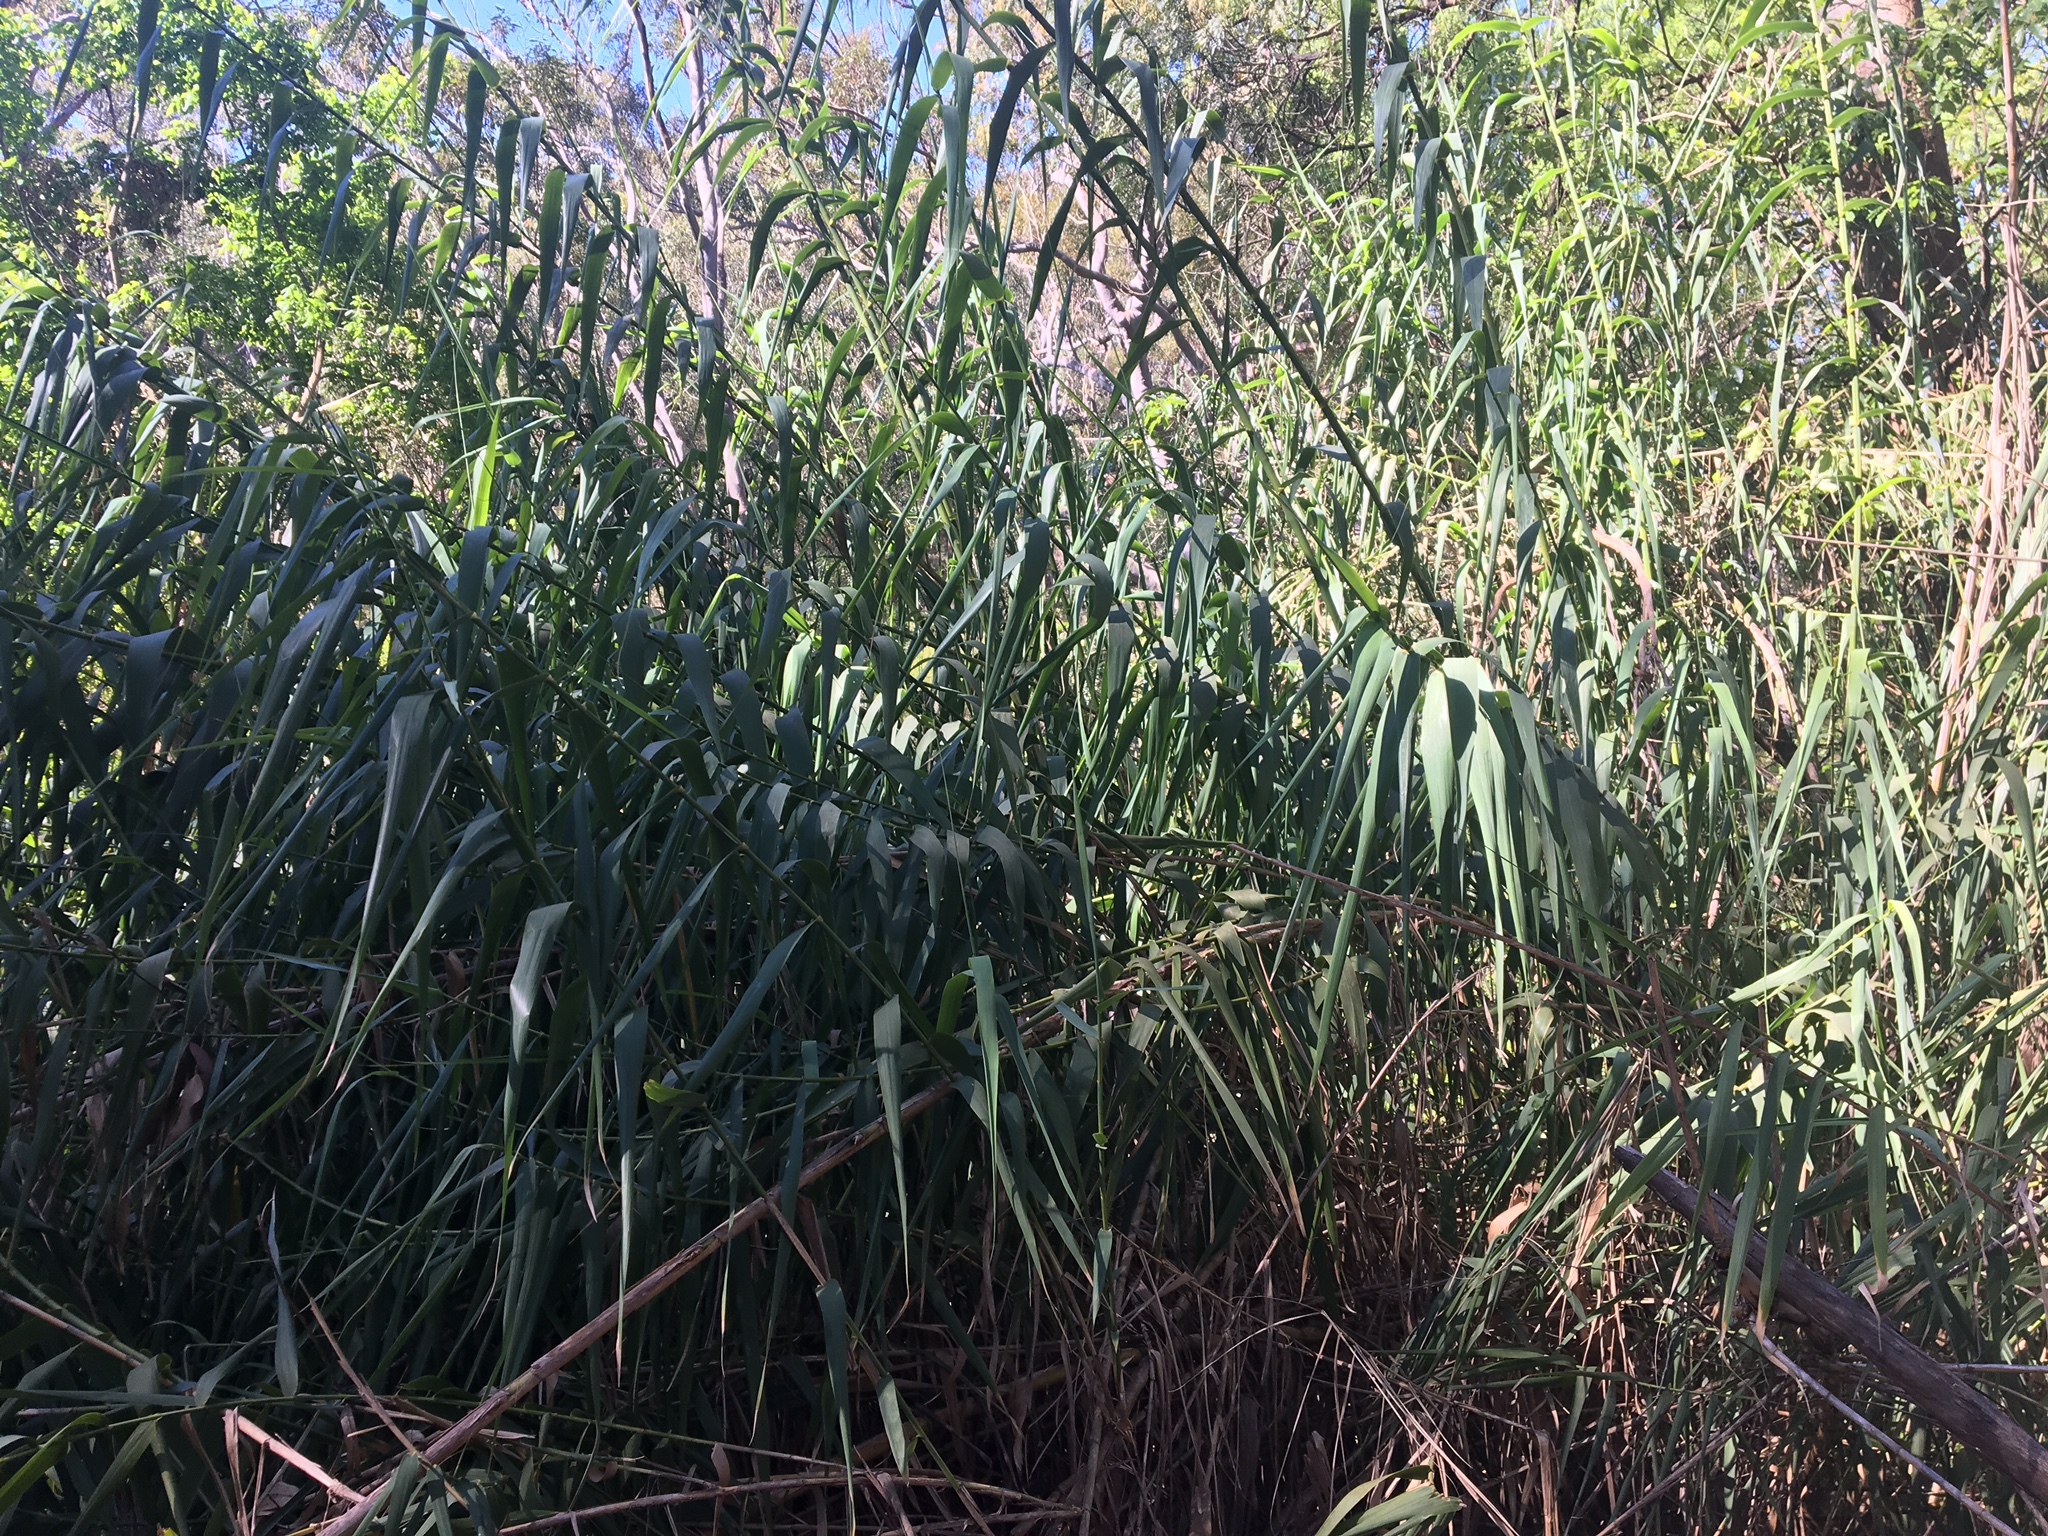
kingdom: Plantae
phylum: Tracheophyta
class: Liliopsida
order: Poales
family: Poaceae
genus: Arundo
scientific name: Arundo donax
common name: Giant reed
